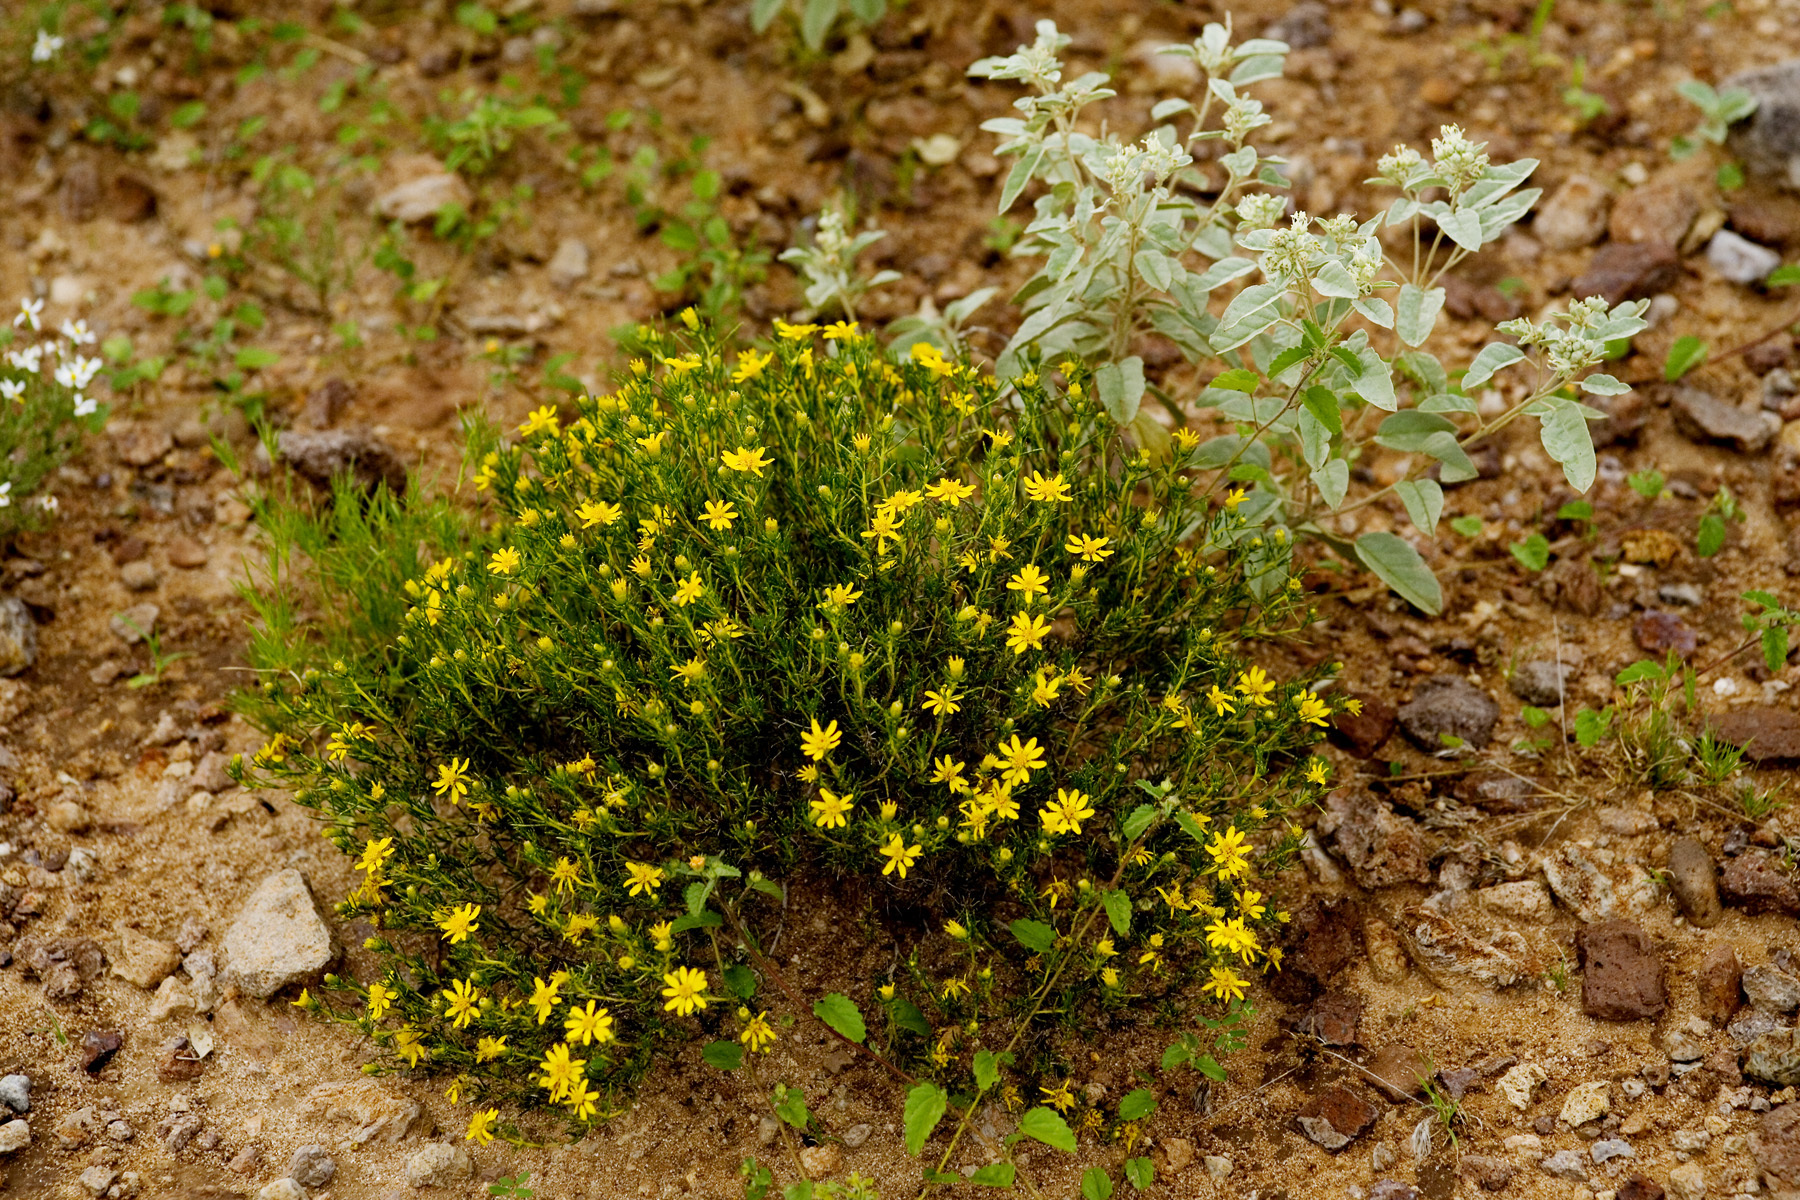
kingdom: Plantae
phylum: Tracheophyta
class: Magnoliopsida
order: Asterales
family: Asteraceae
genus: Thymophylla
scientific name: Thymophylla acerosa
